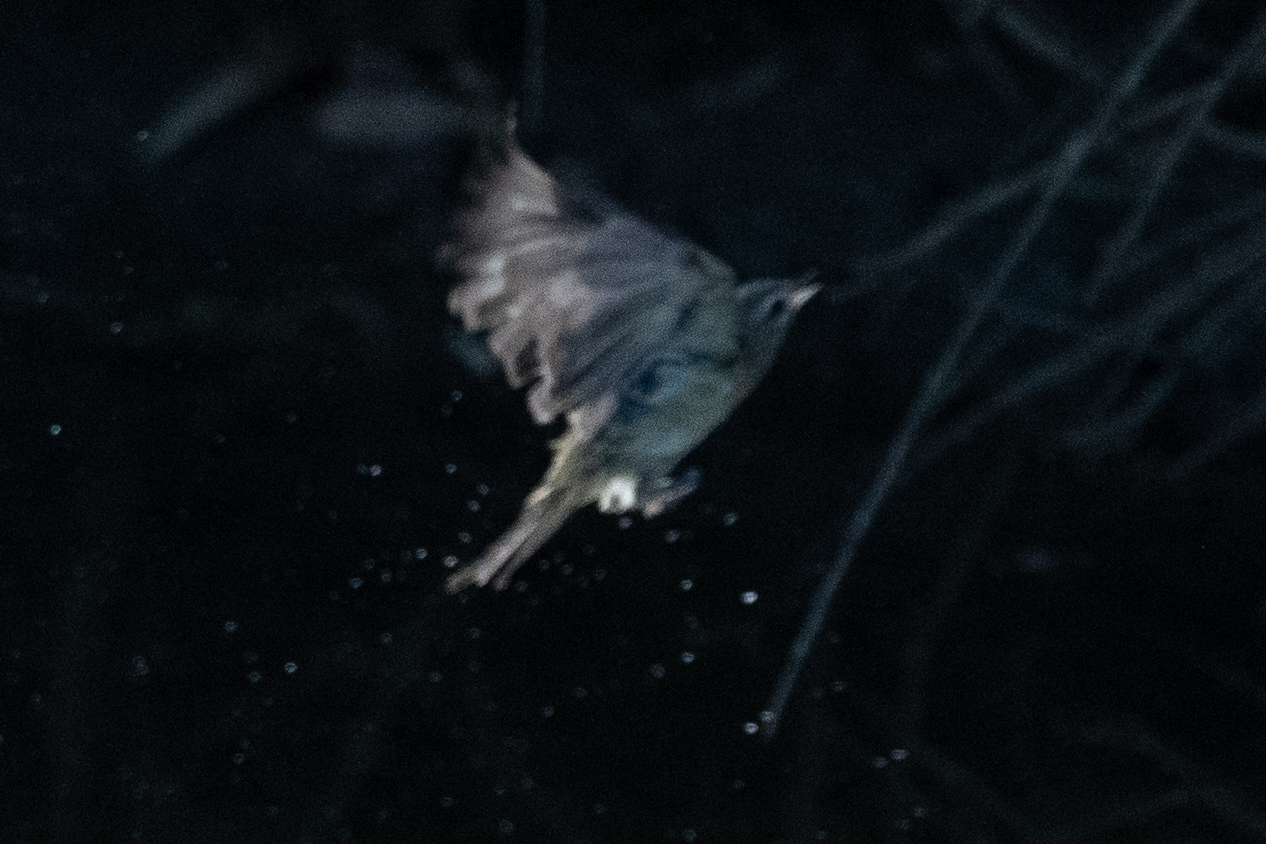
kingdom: Animalia
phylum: Chordata
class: Aves
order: Passeriformes
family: Vireonidae
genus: Vireo
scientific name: Vireo gilvus
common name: Warbling vireo
